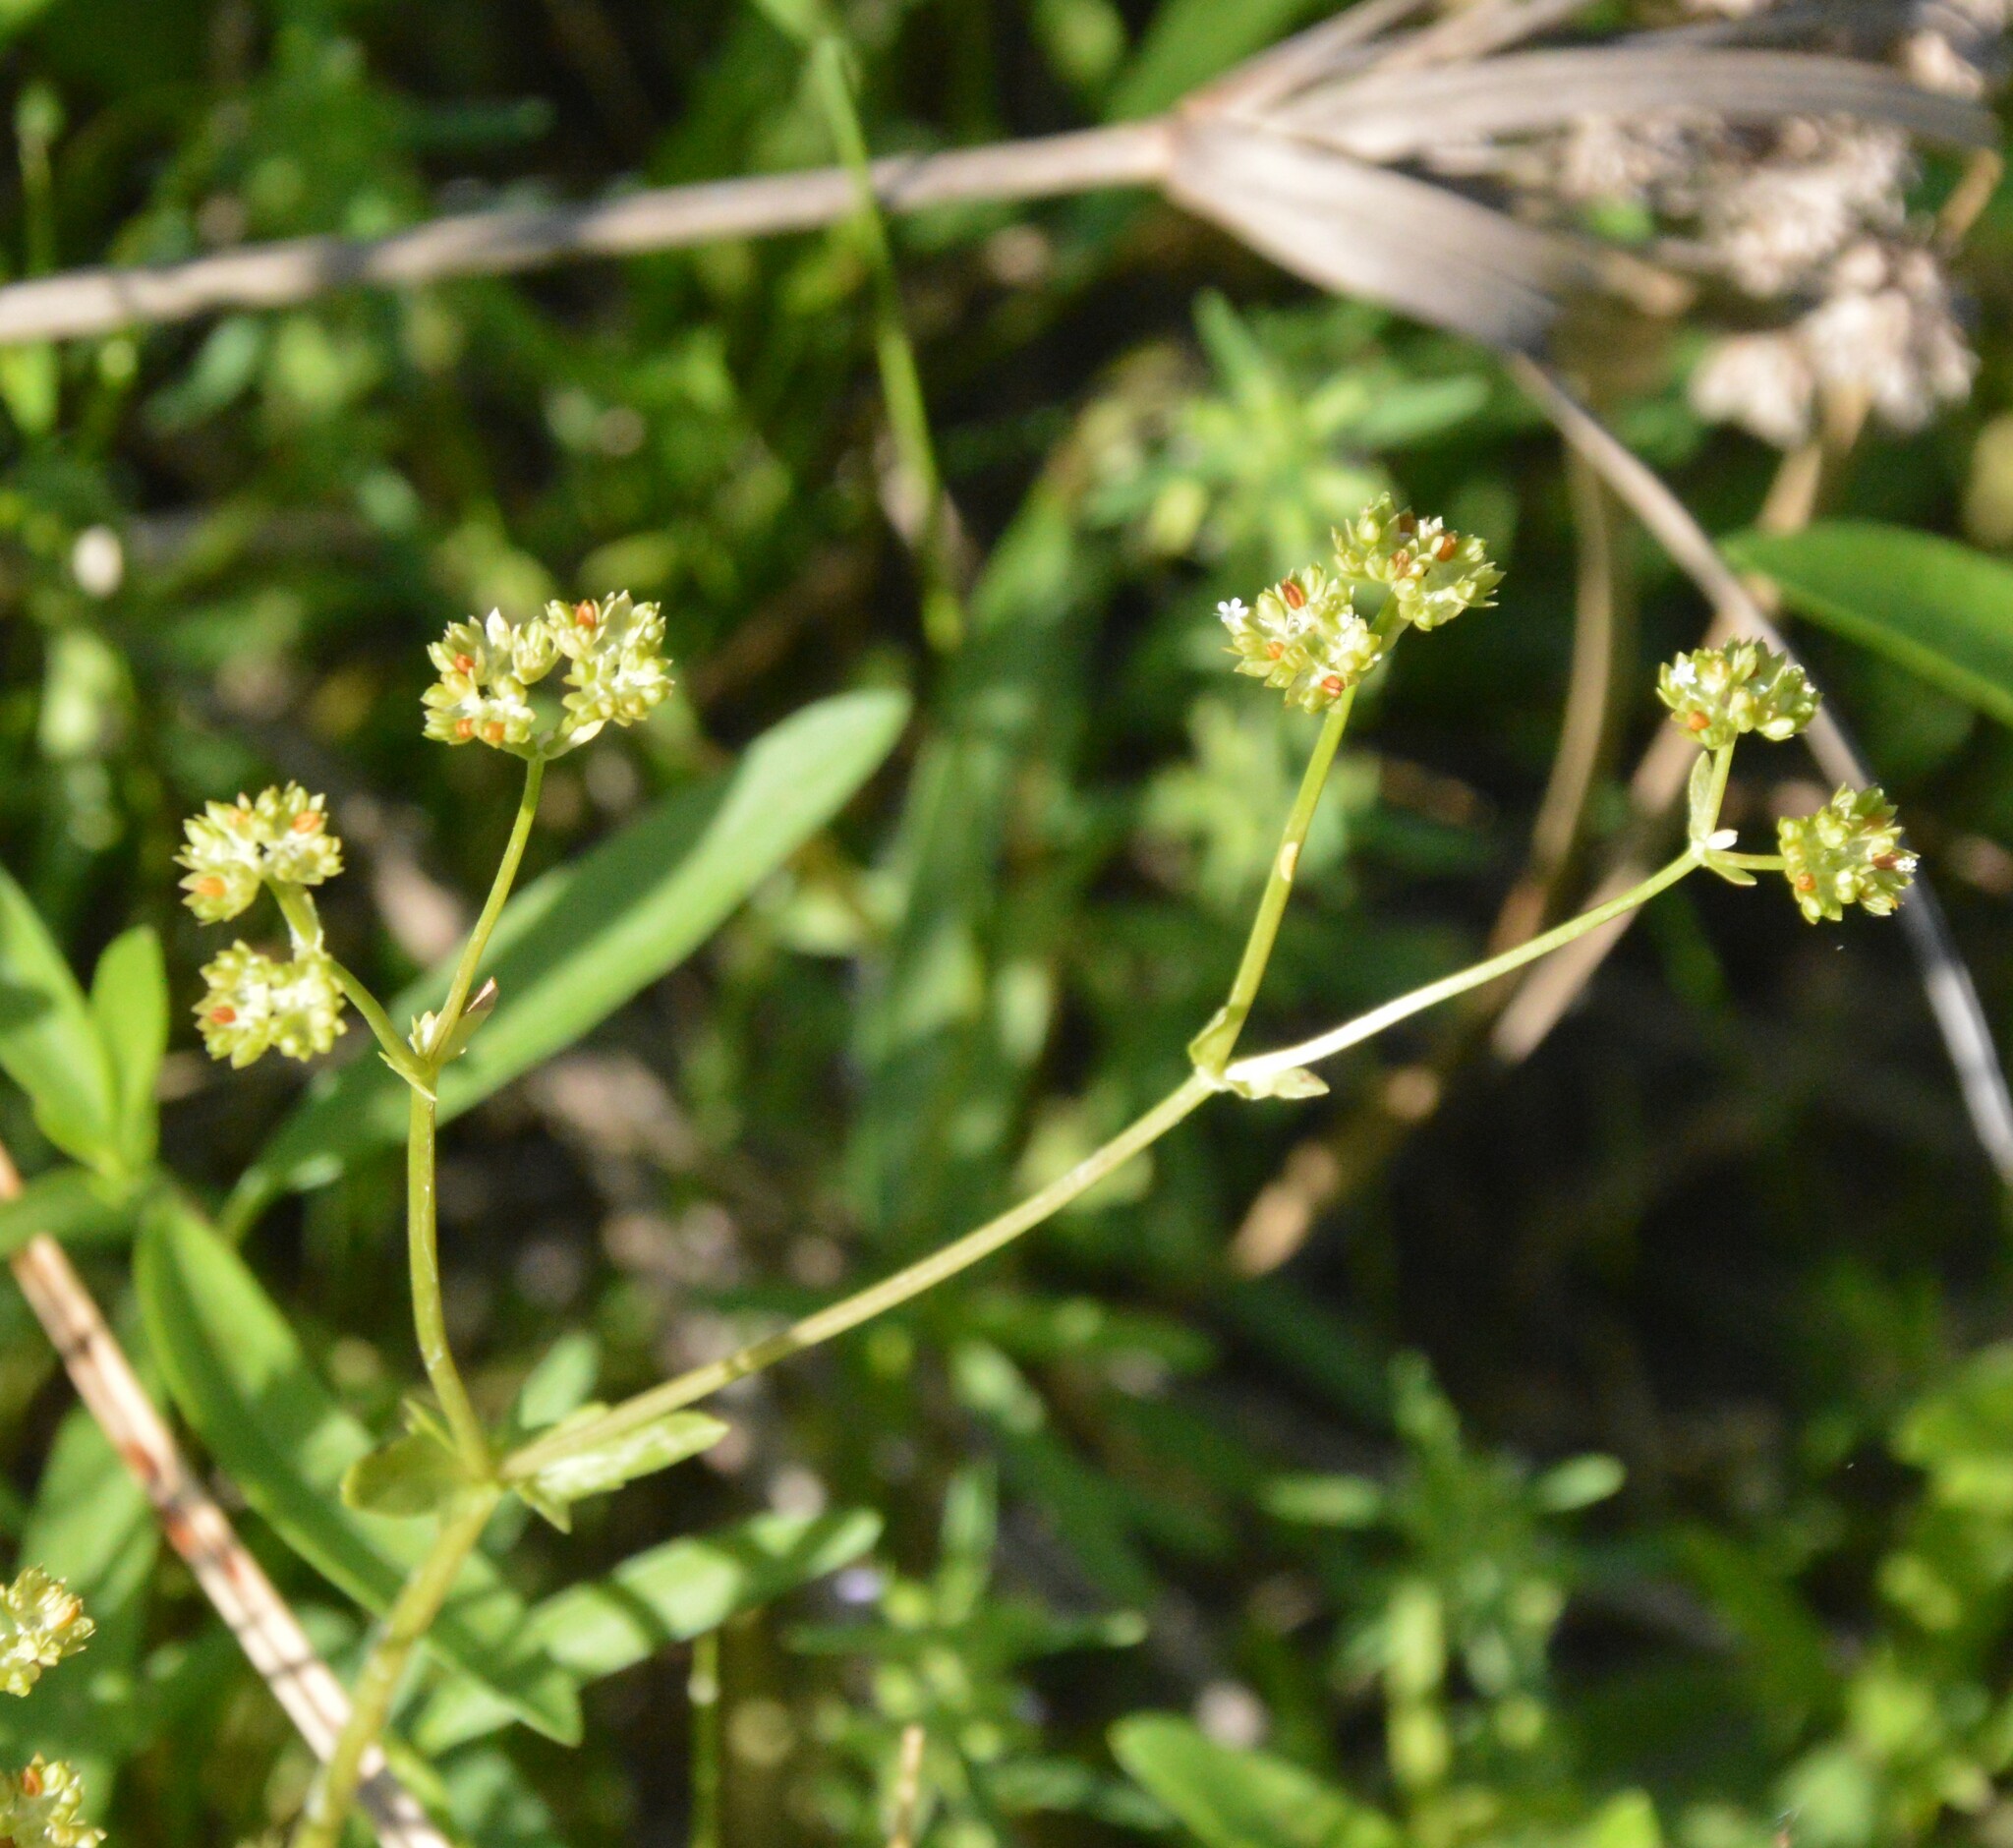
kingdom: Plantae
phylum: Tracheophyta
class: Magnoliopsida
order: Dipsacales
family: Caprifoliaceae
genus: Valerianella
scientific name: Valerianella radiata
